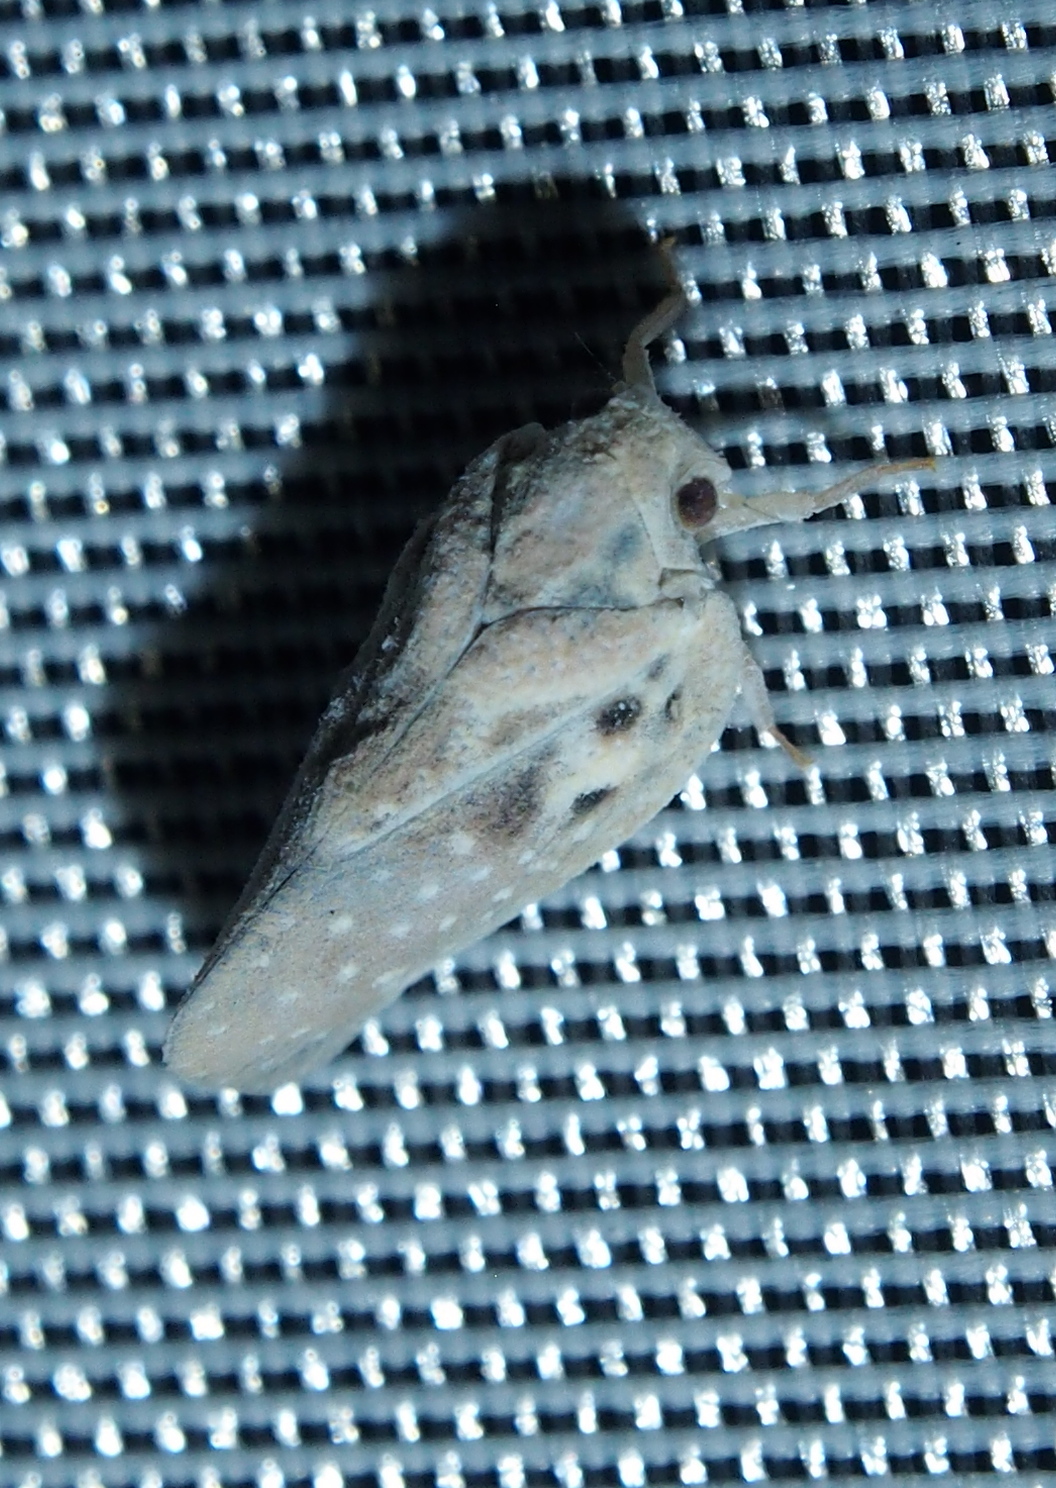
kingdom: Animalia
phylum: Arthropoda
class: Insecta
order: Hemiptera
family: Flatidae
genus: Metcalfa
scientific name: Metcalfa pruinosa
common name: Citrus flatid planthopper
